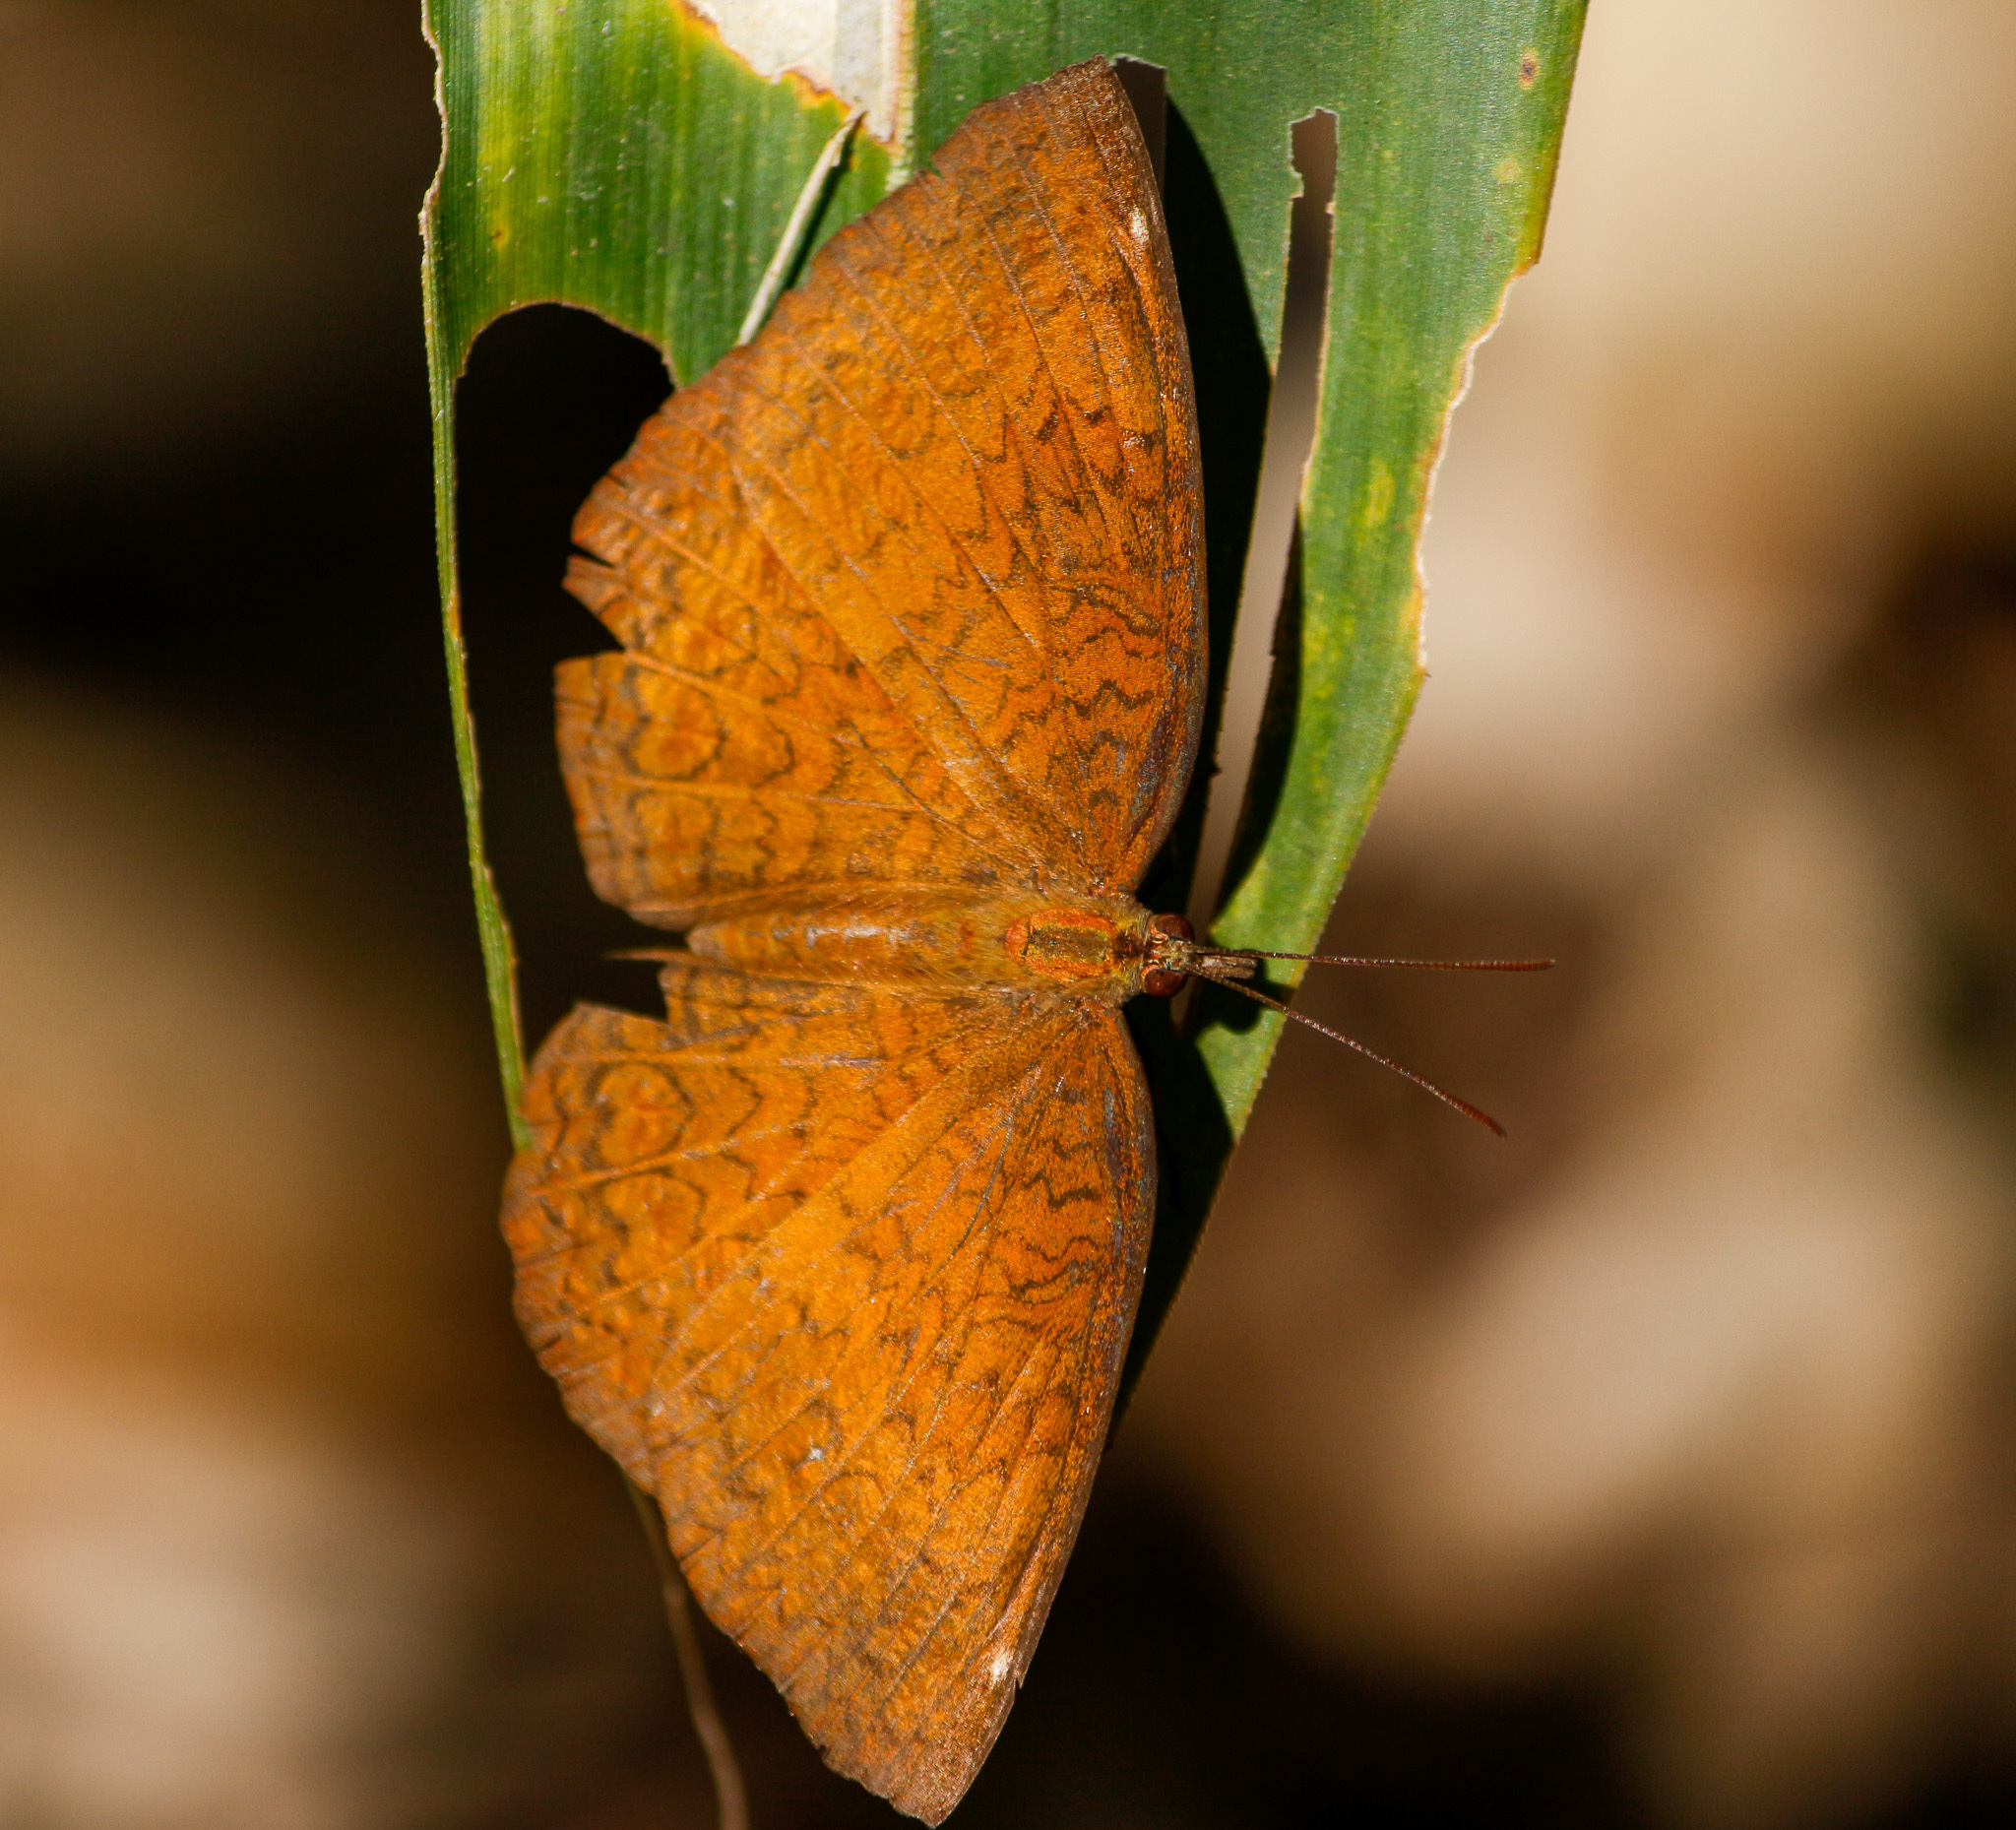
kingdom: Animalia
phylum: Arthropoda
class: Insecta
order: Lepidoptera
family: Nymphalidae
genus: Ariadne
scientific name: Ariadne merione
